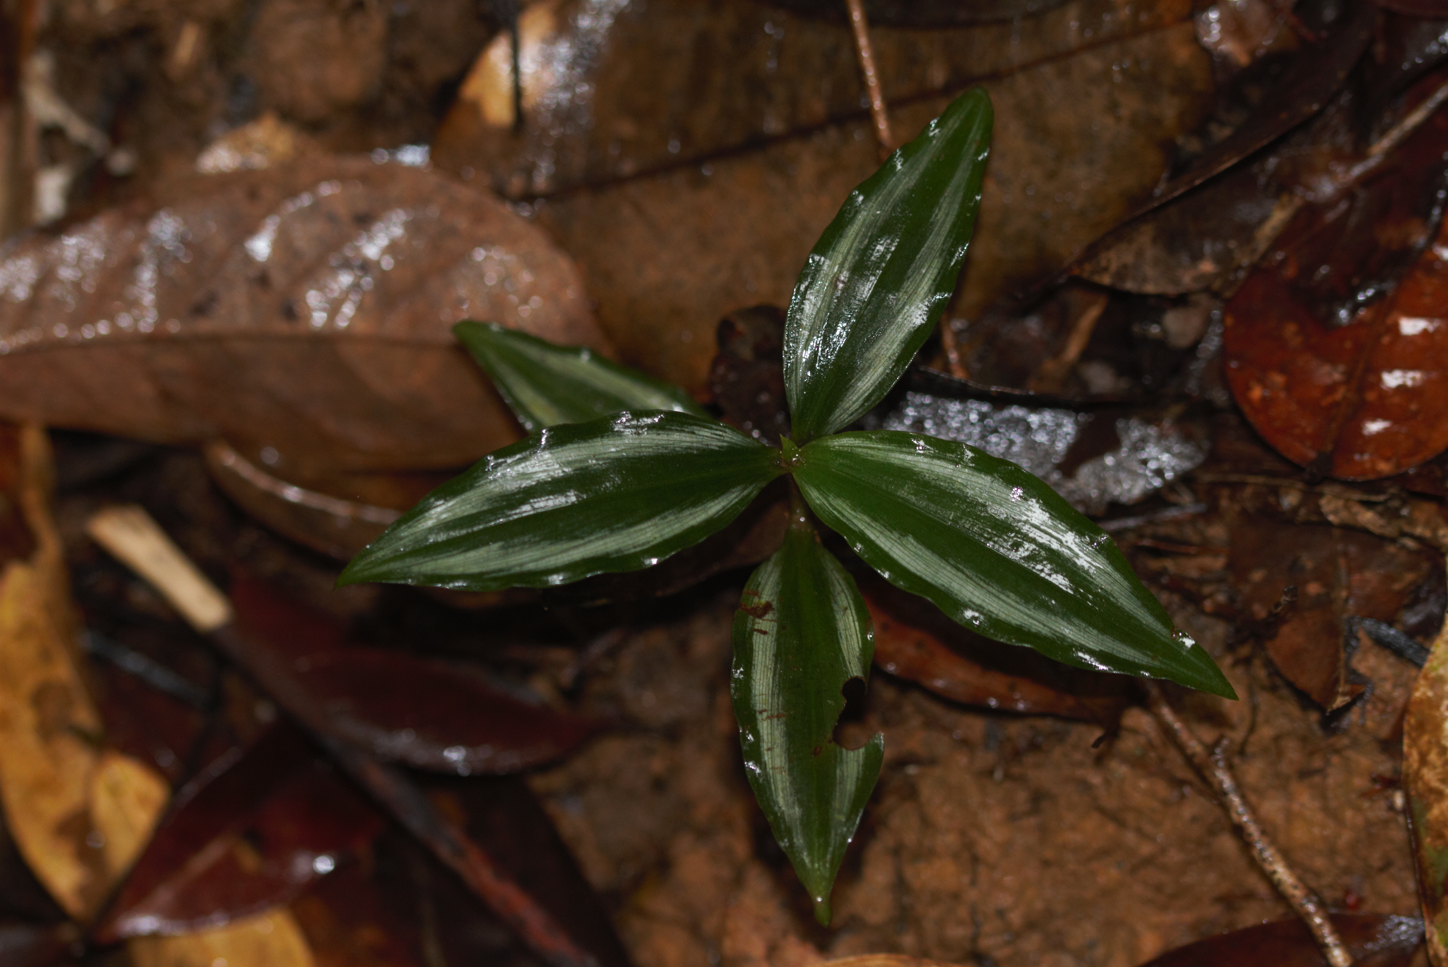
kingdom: Plantae
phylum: Tracheophyta
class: Liliopsida
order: Commelinales
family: Commelinaceae
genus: Buforrestia
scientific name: Buforrestia candolleana
